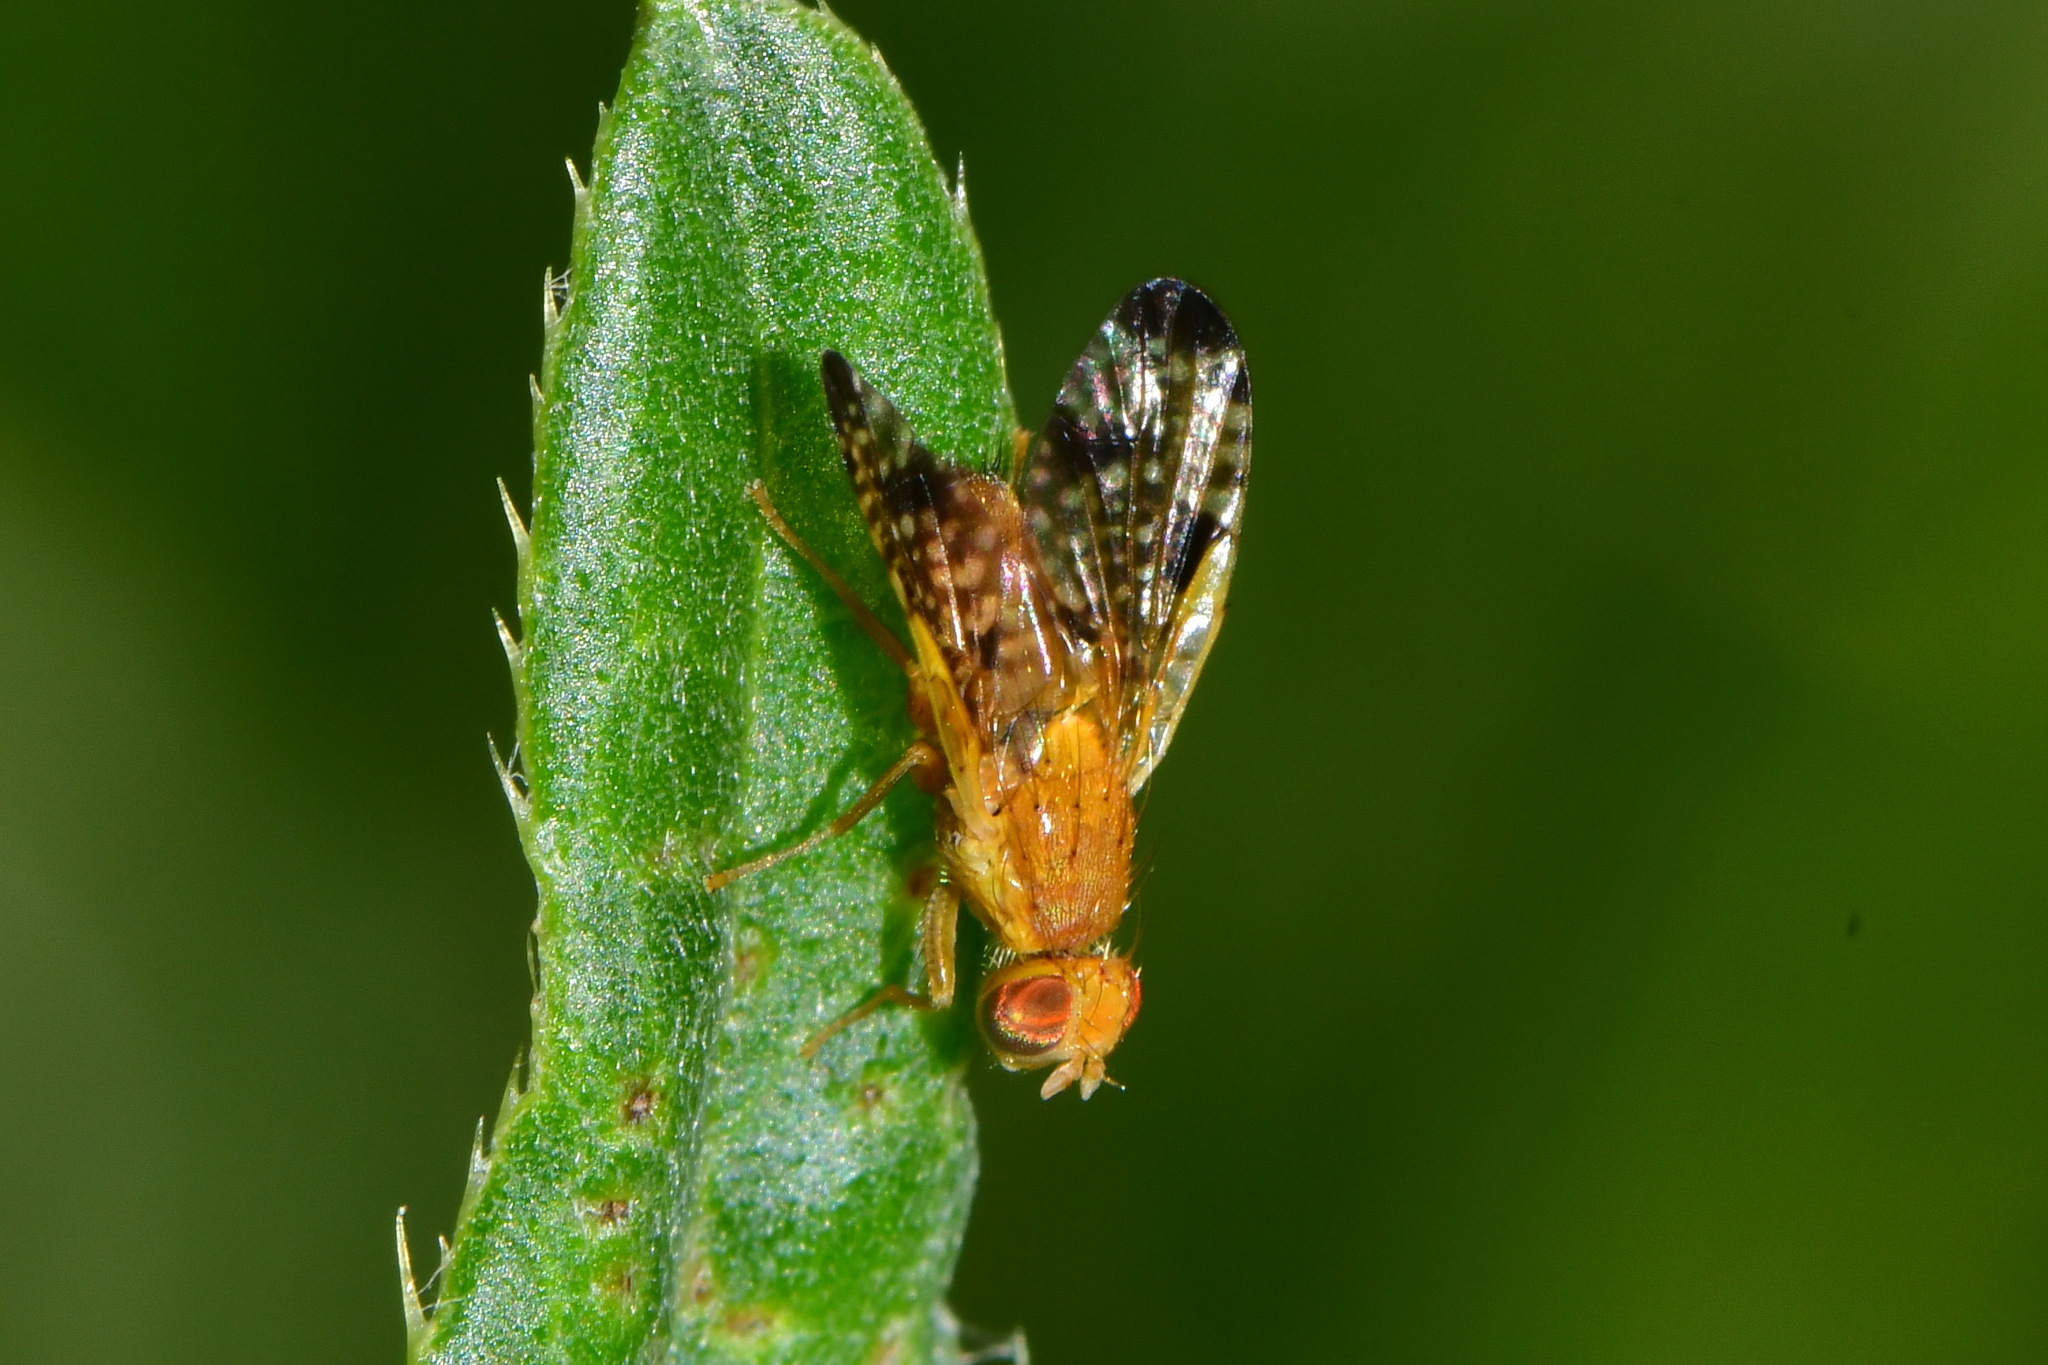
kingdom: Animalia
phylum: Arthropoda
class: Insecta
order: Diptera
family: Tephritidae
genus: Xyphosia
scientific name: Xyphosia miliaria
